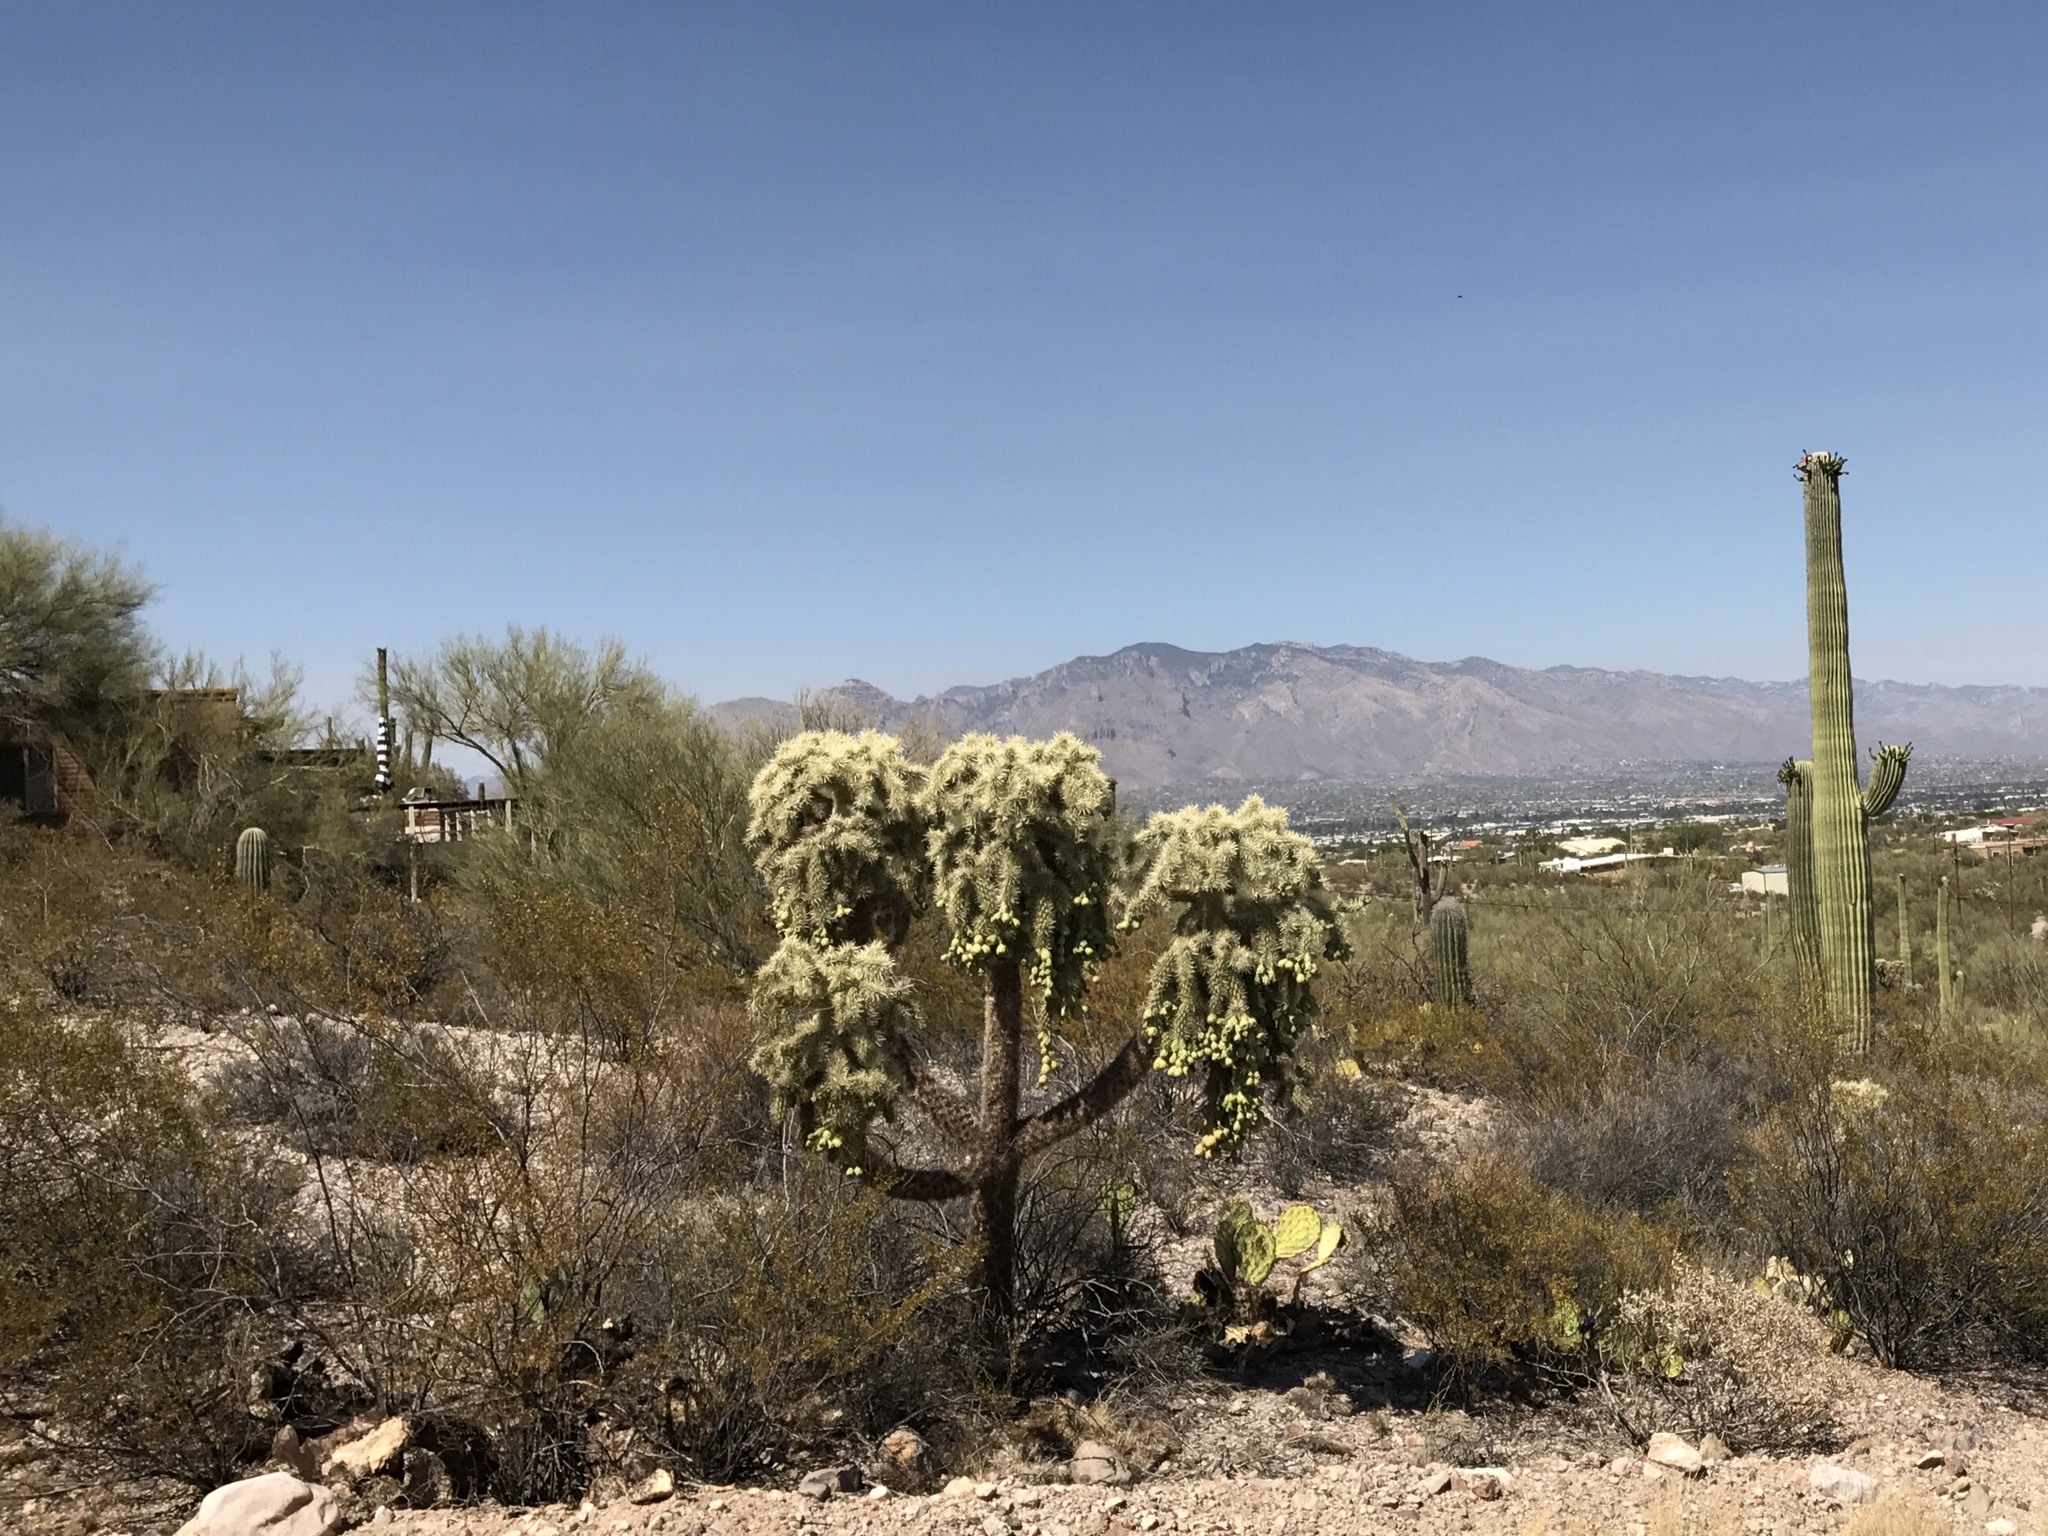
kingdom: Plantae
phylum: Tracheophyta
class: Magnoliopsida
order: Caryophyllales
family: Cactaceae
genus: Cylindropuntia
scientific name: Cylindropuntia fulgida
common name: Jumping cholla
